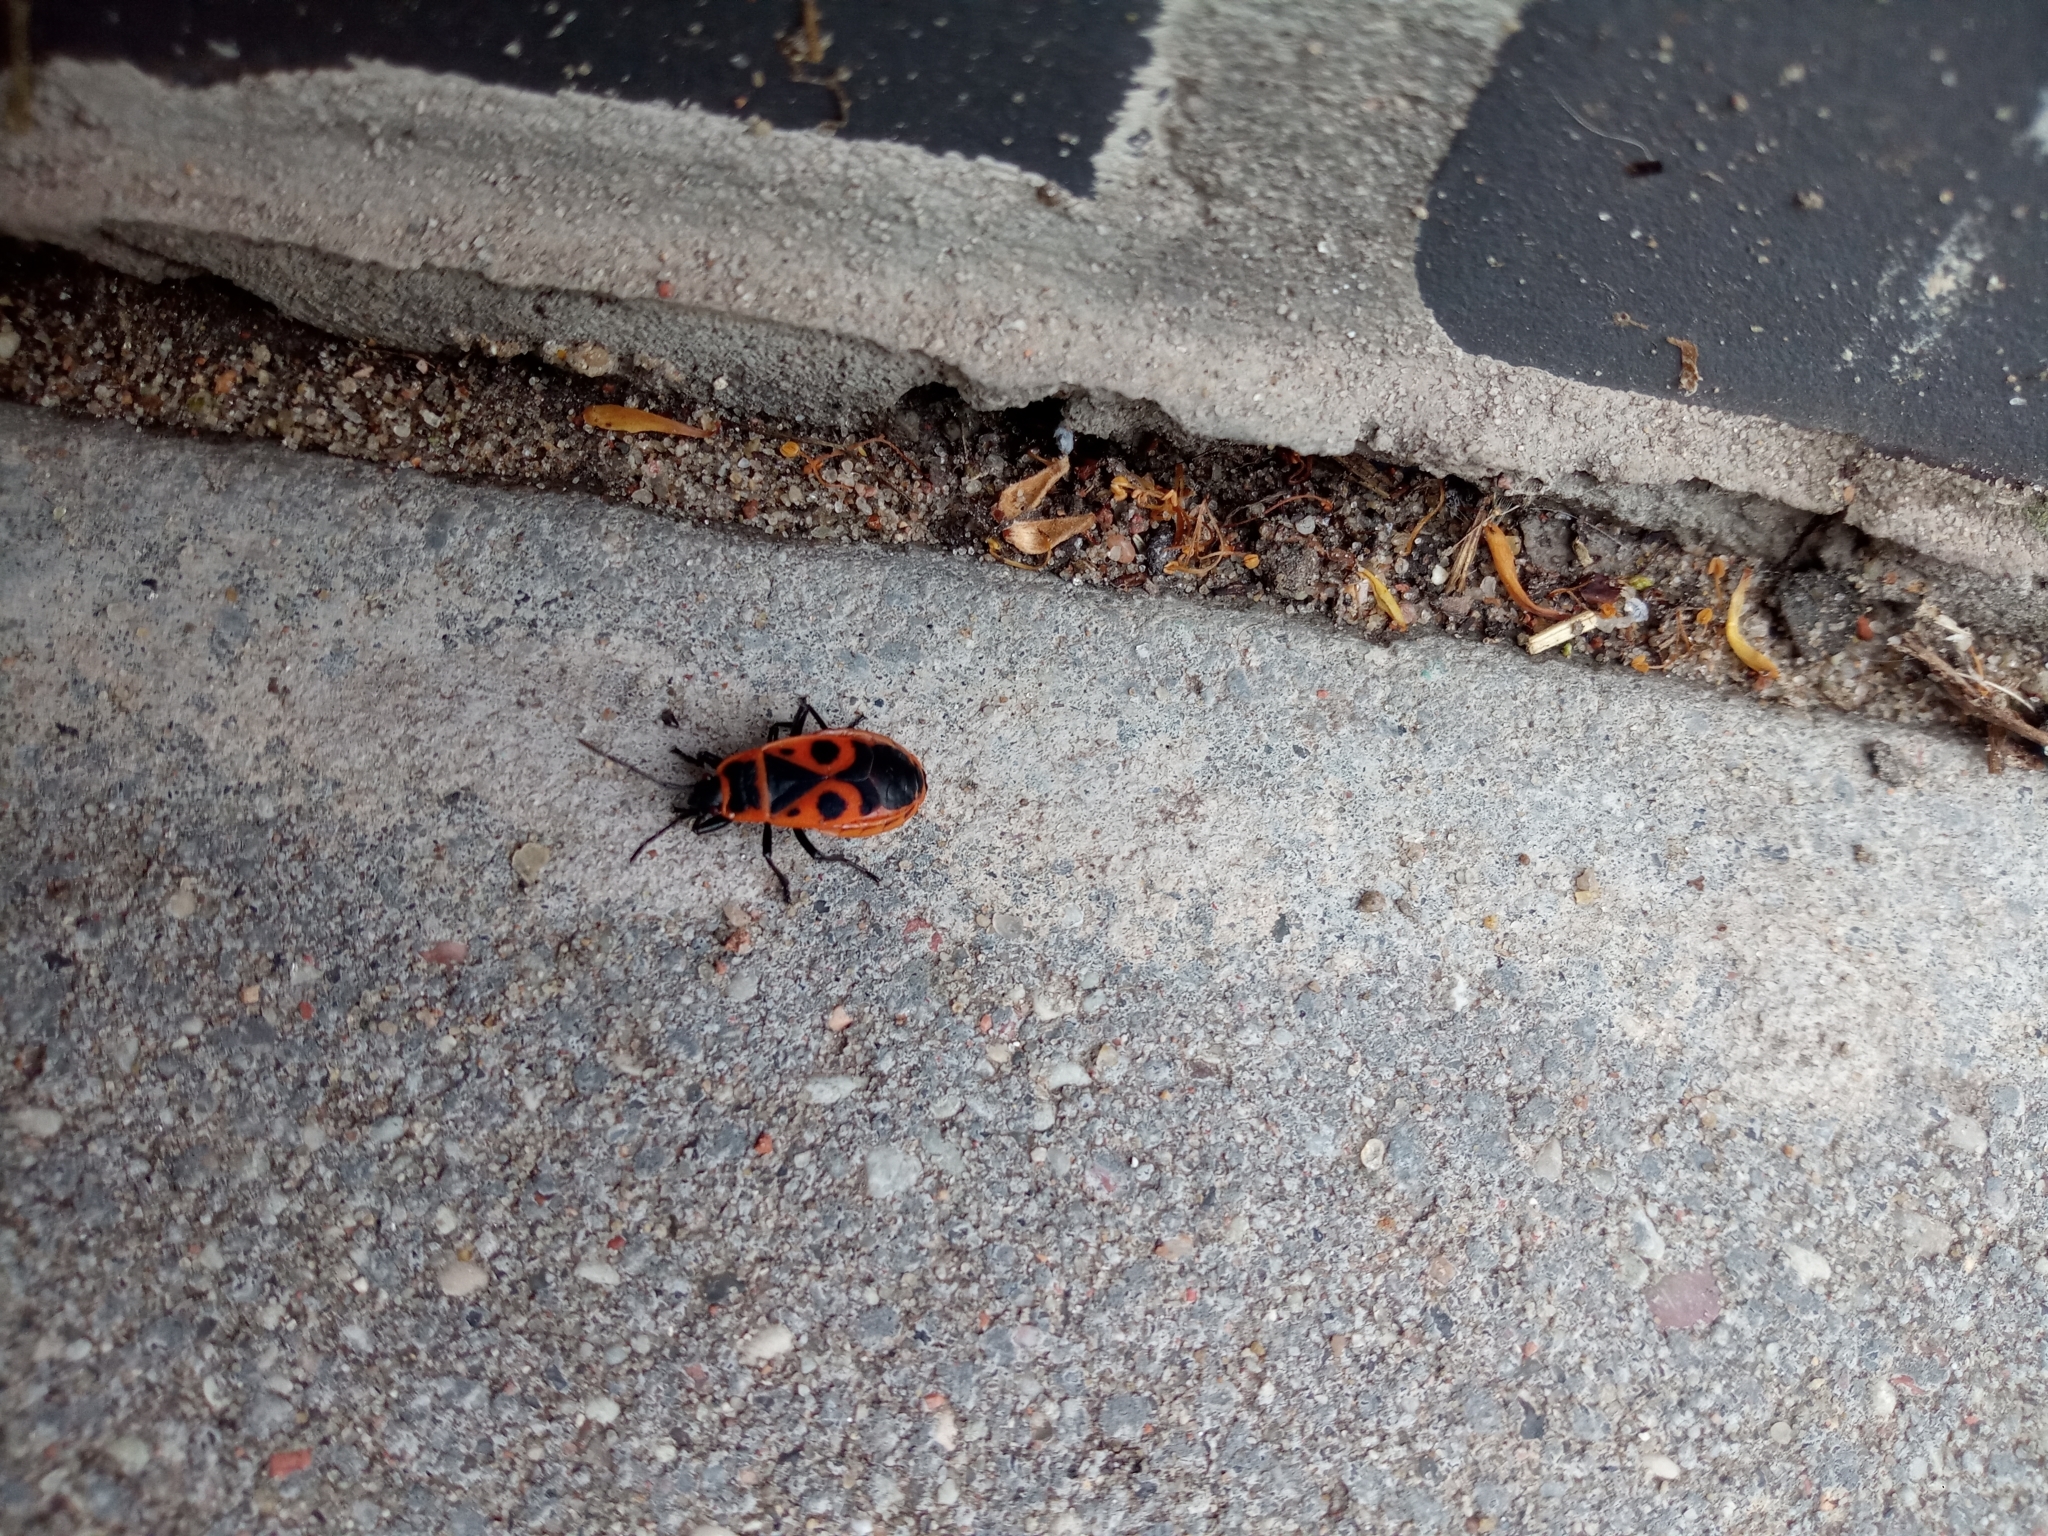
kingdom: Animalia
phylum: Arthropoda
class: Insecta
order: Hemiptera
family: Pyrrhocoridae
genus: Pyrrhocoris
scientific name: Pyrrhocoris apterus
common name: Firebug
